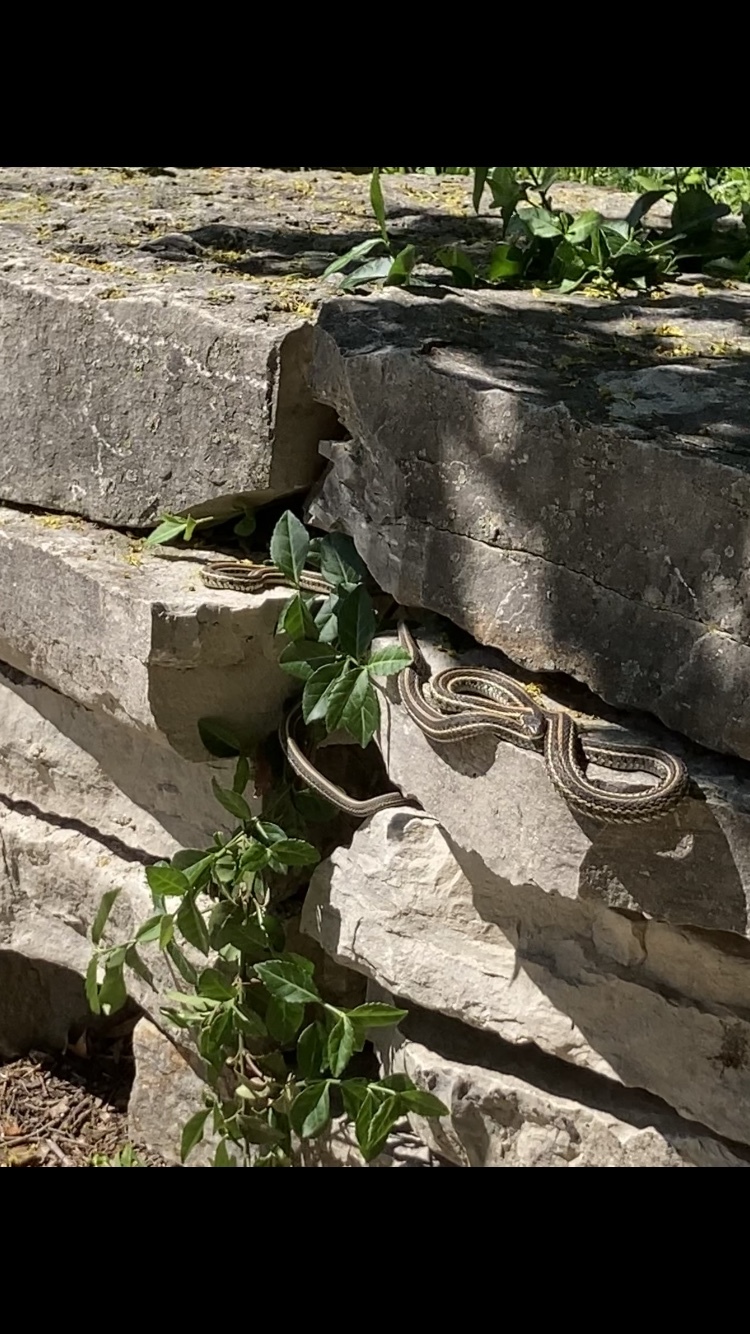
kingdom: Animalia
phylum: Chordata
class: Squamata
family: Colubridae
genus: Thamnophis
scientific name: Thamnophis radix
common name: Plains garter snake
